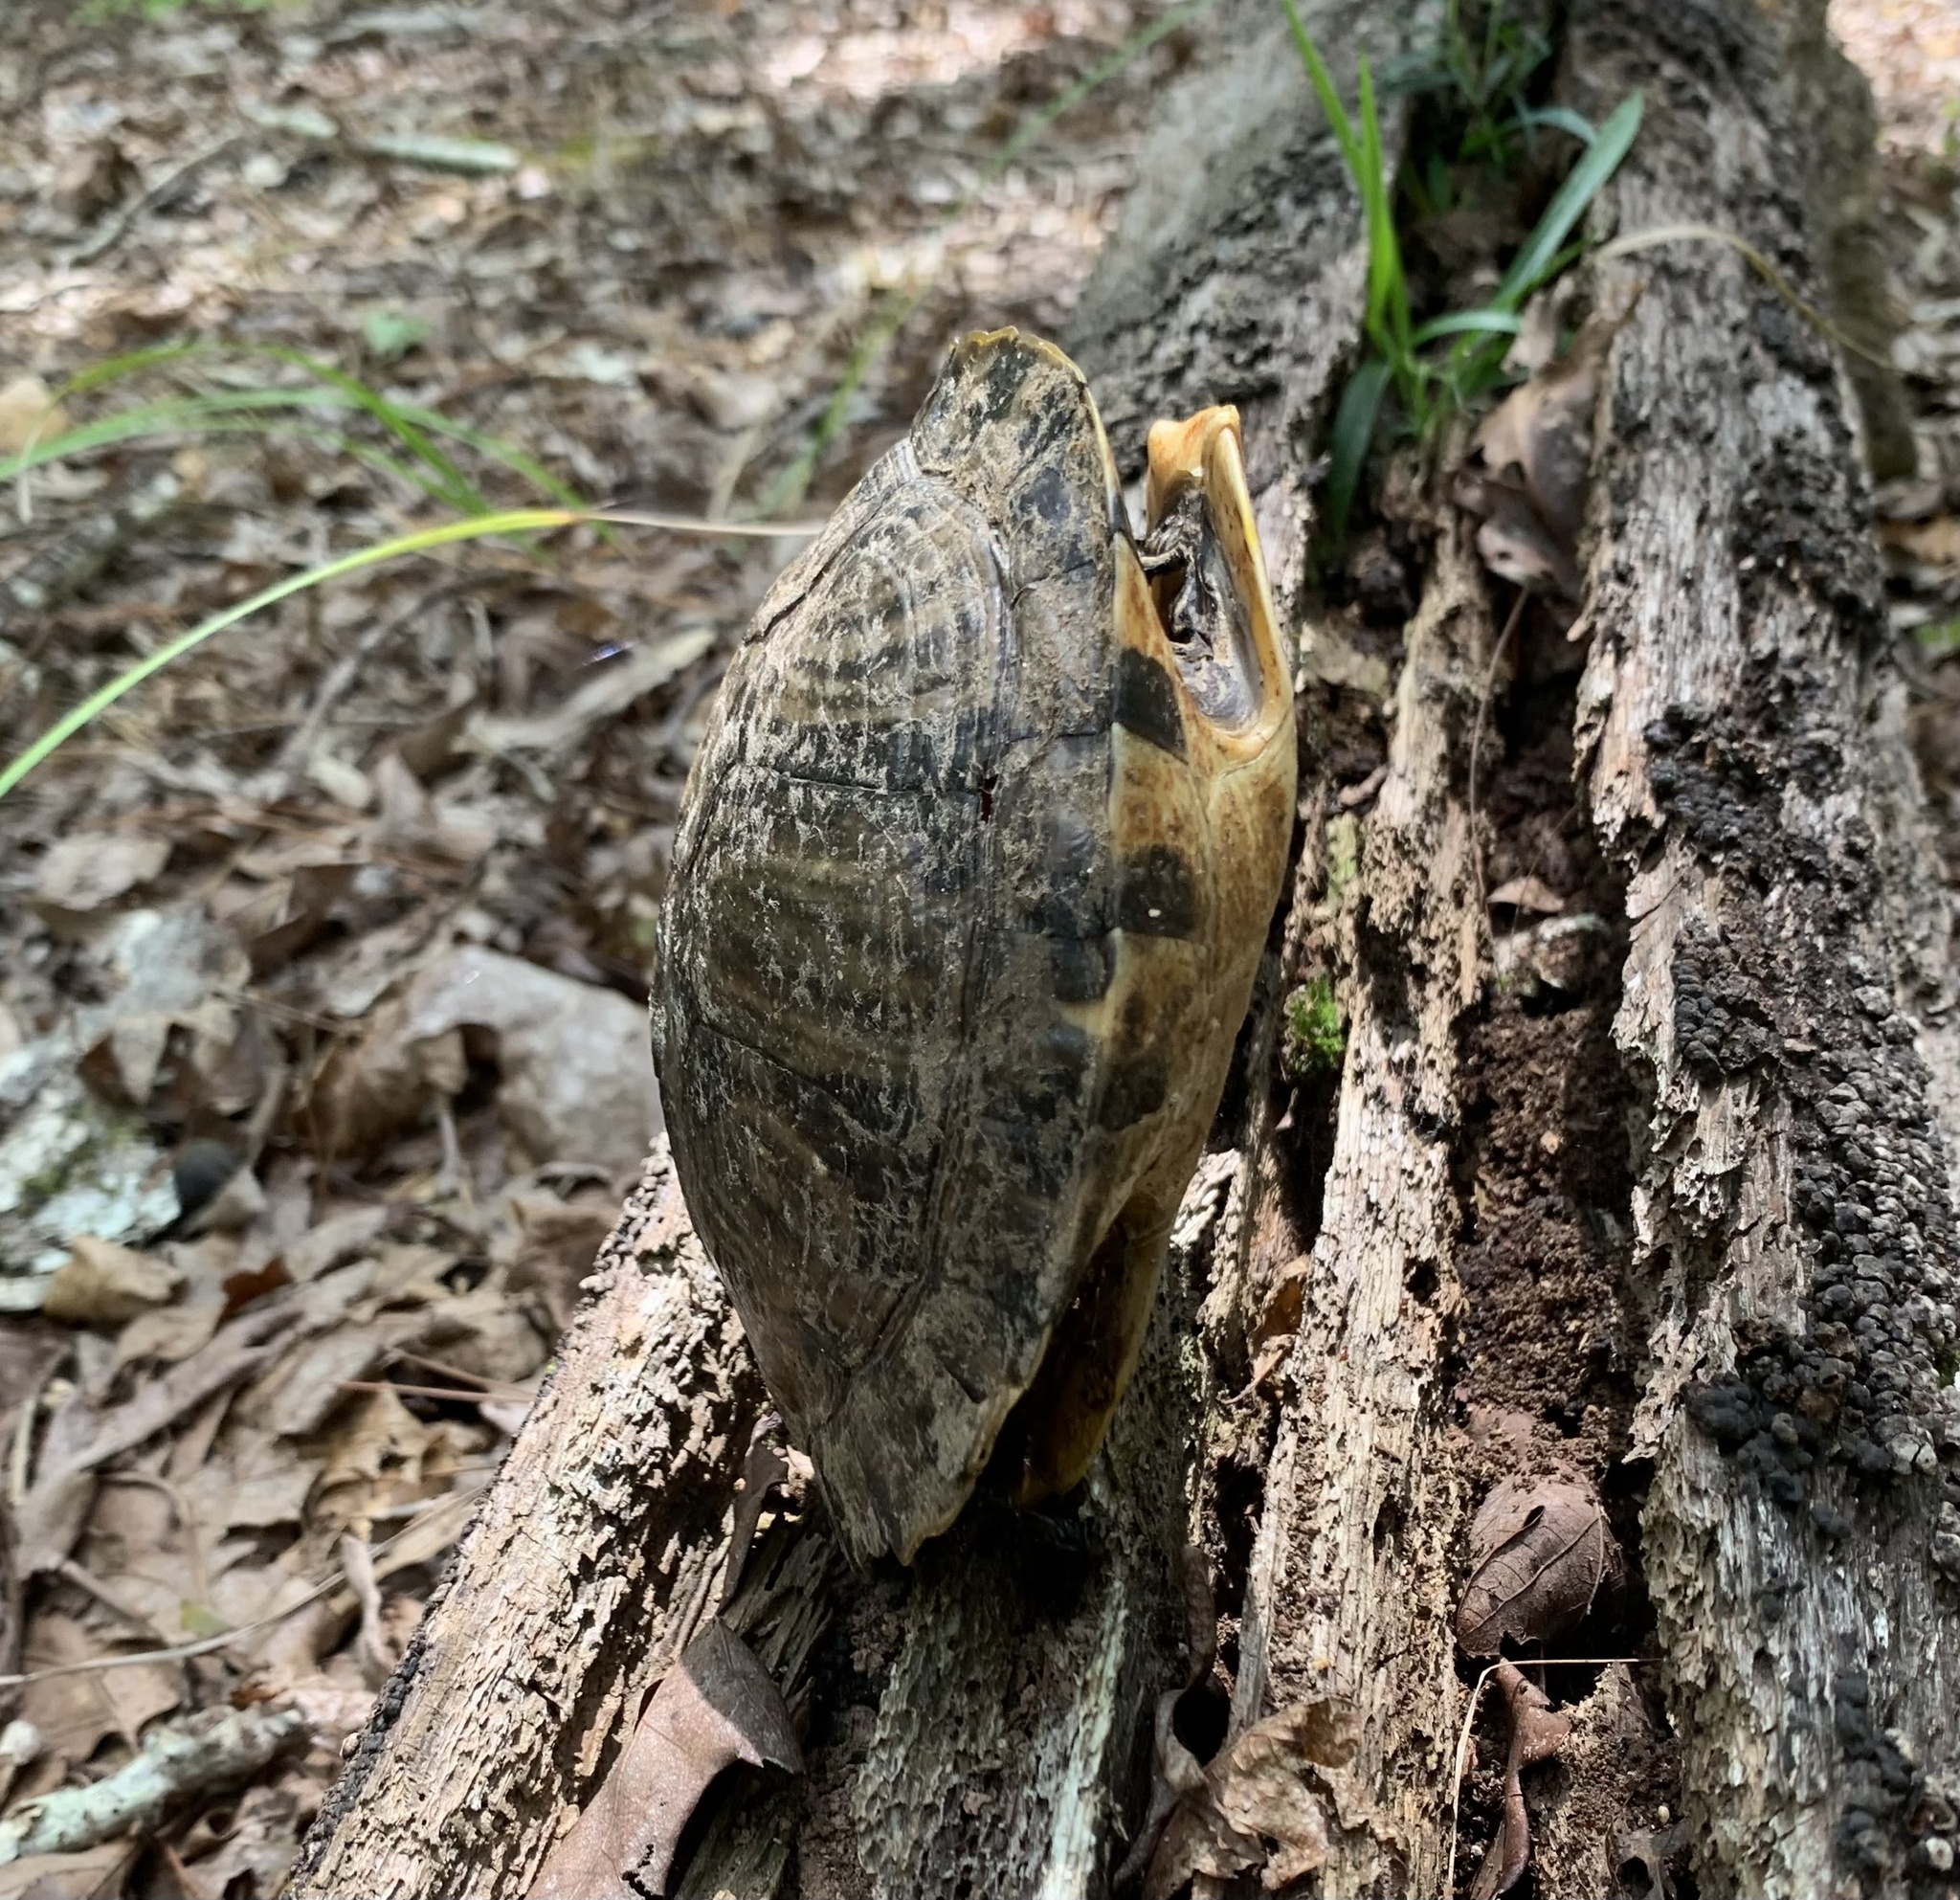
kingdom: Animalia
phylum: Chordata
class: Testudines
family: Emydidae
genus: Pseudemys
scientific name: Pseudemys concinna
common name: Eastern river cooter
